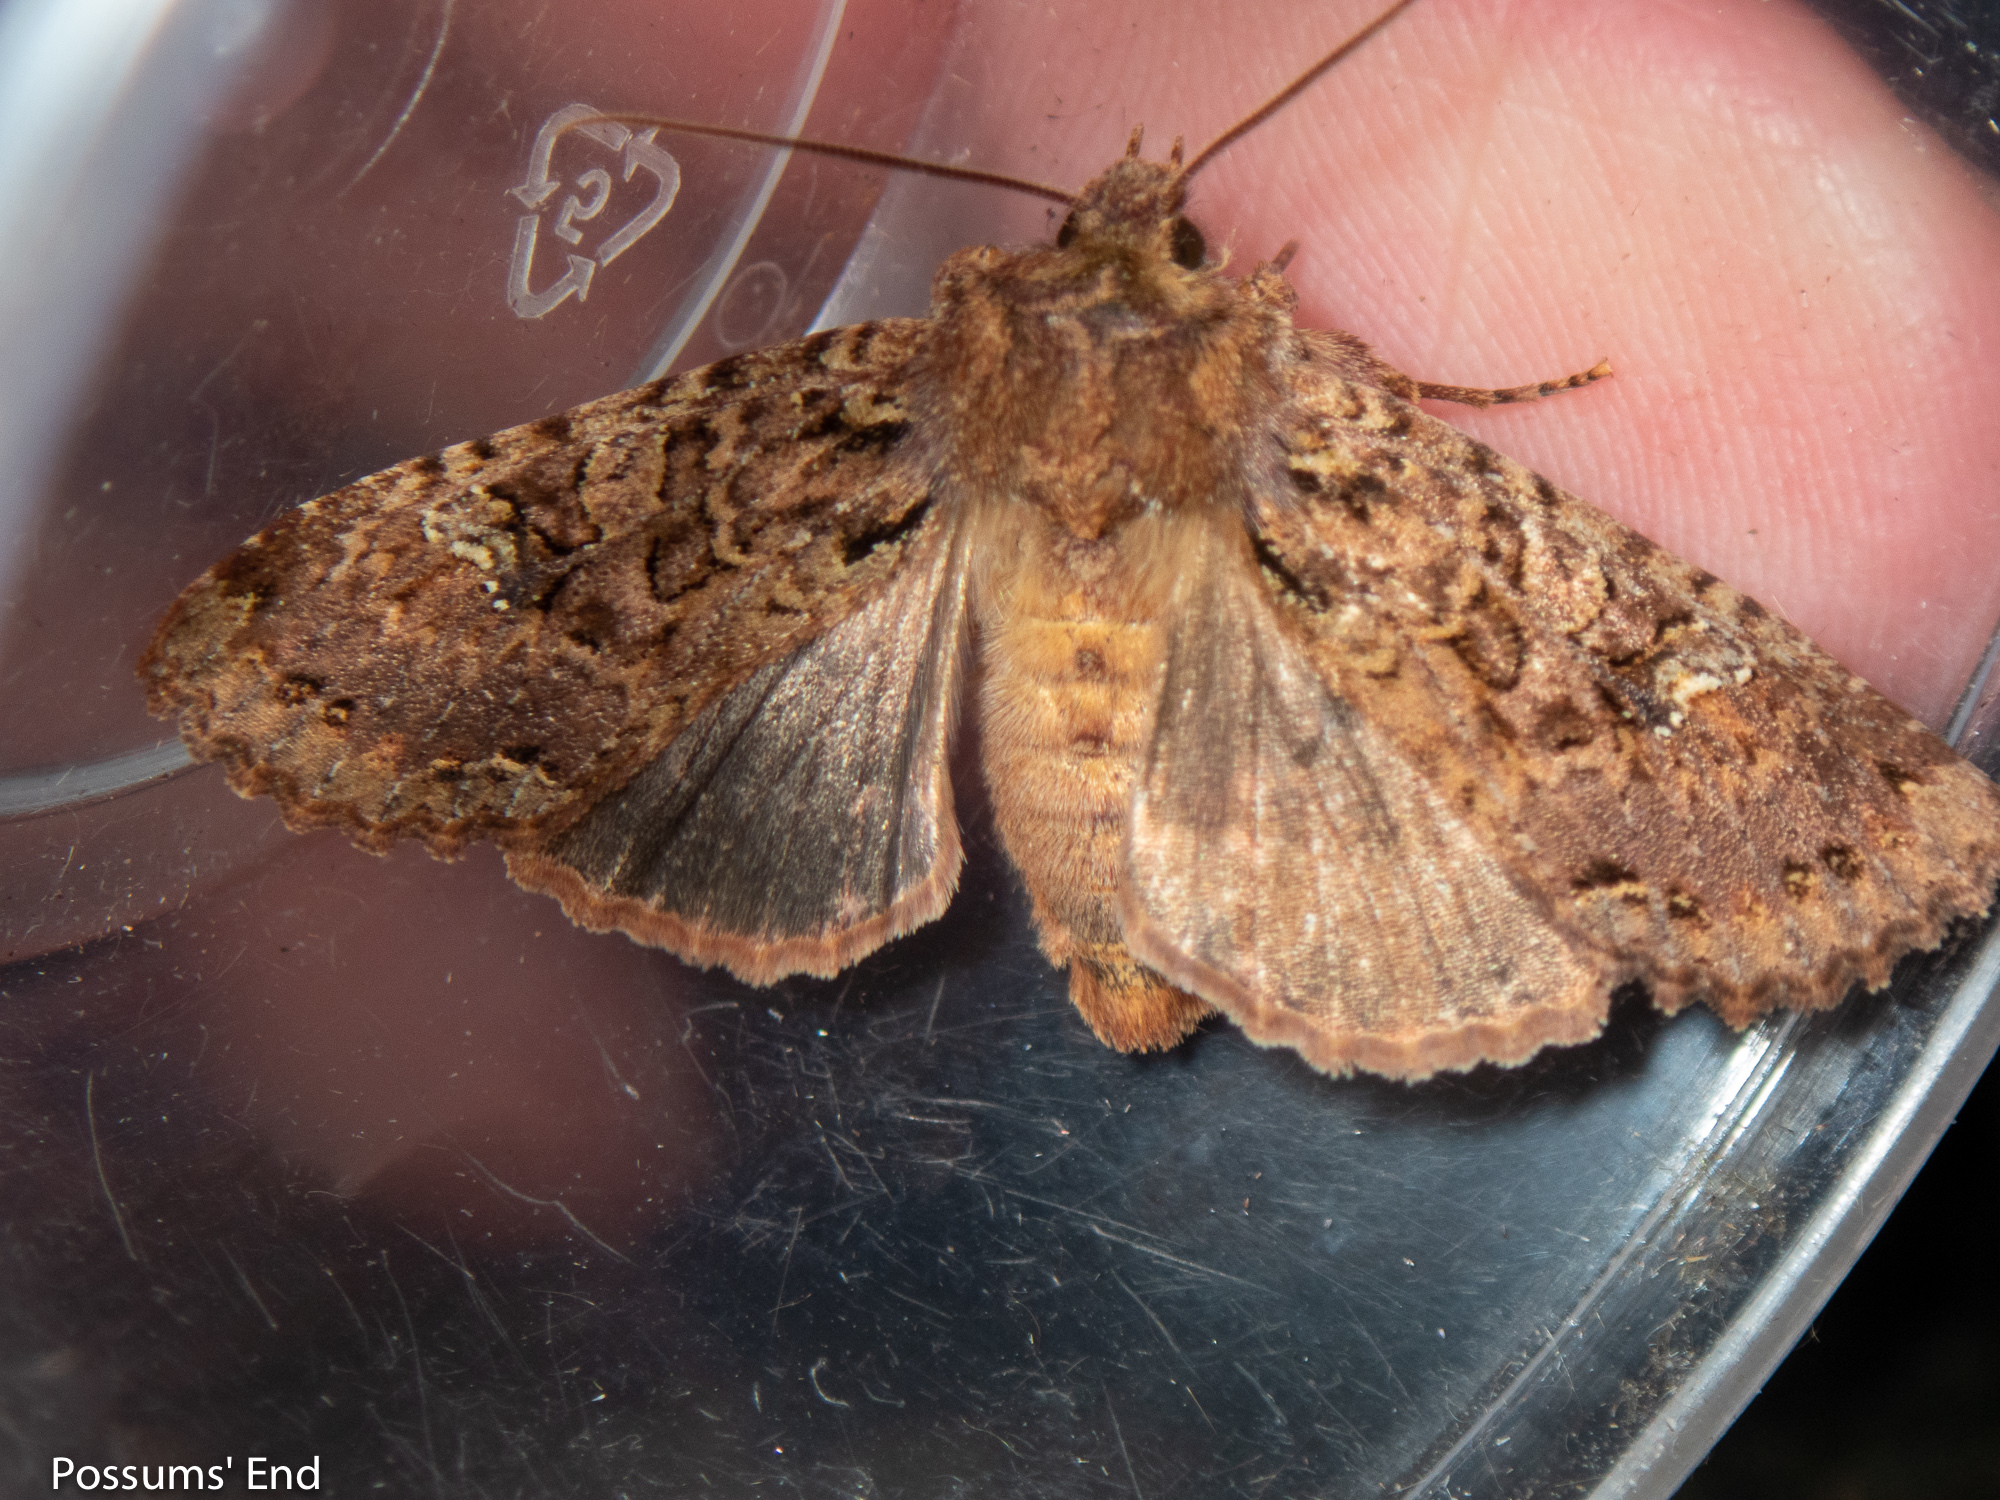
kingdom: Animalia
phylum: Arthropoda
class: Insecta
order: Lepidoptera
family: Noctuidae
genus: Meterana
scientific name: Meterana
